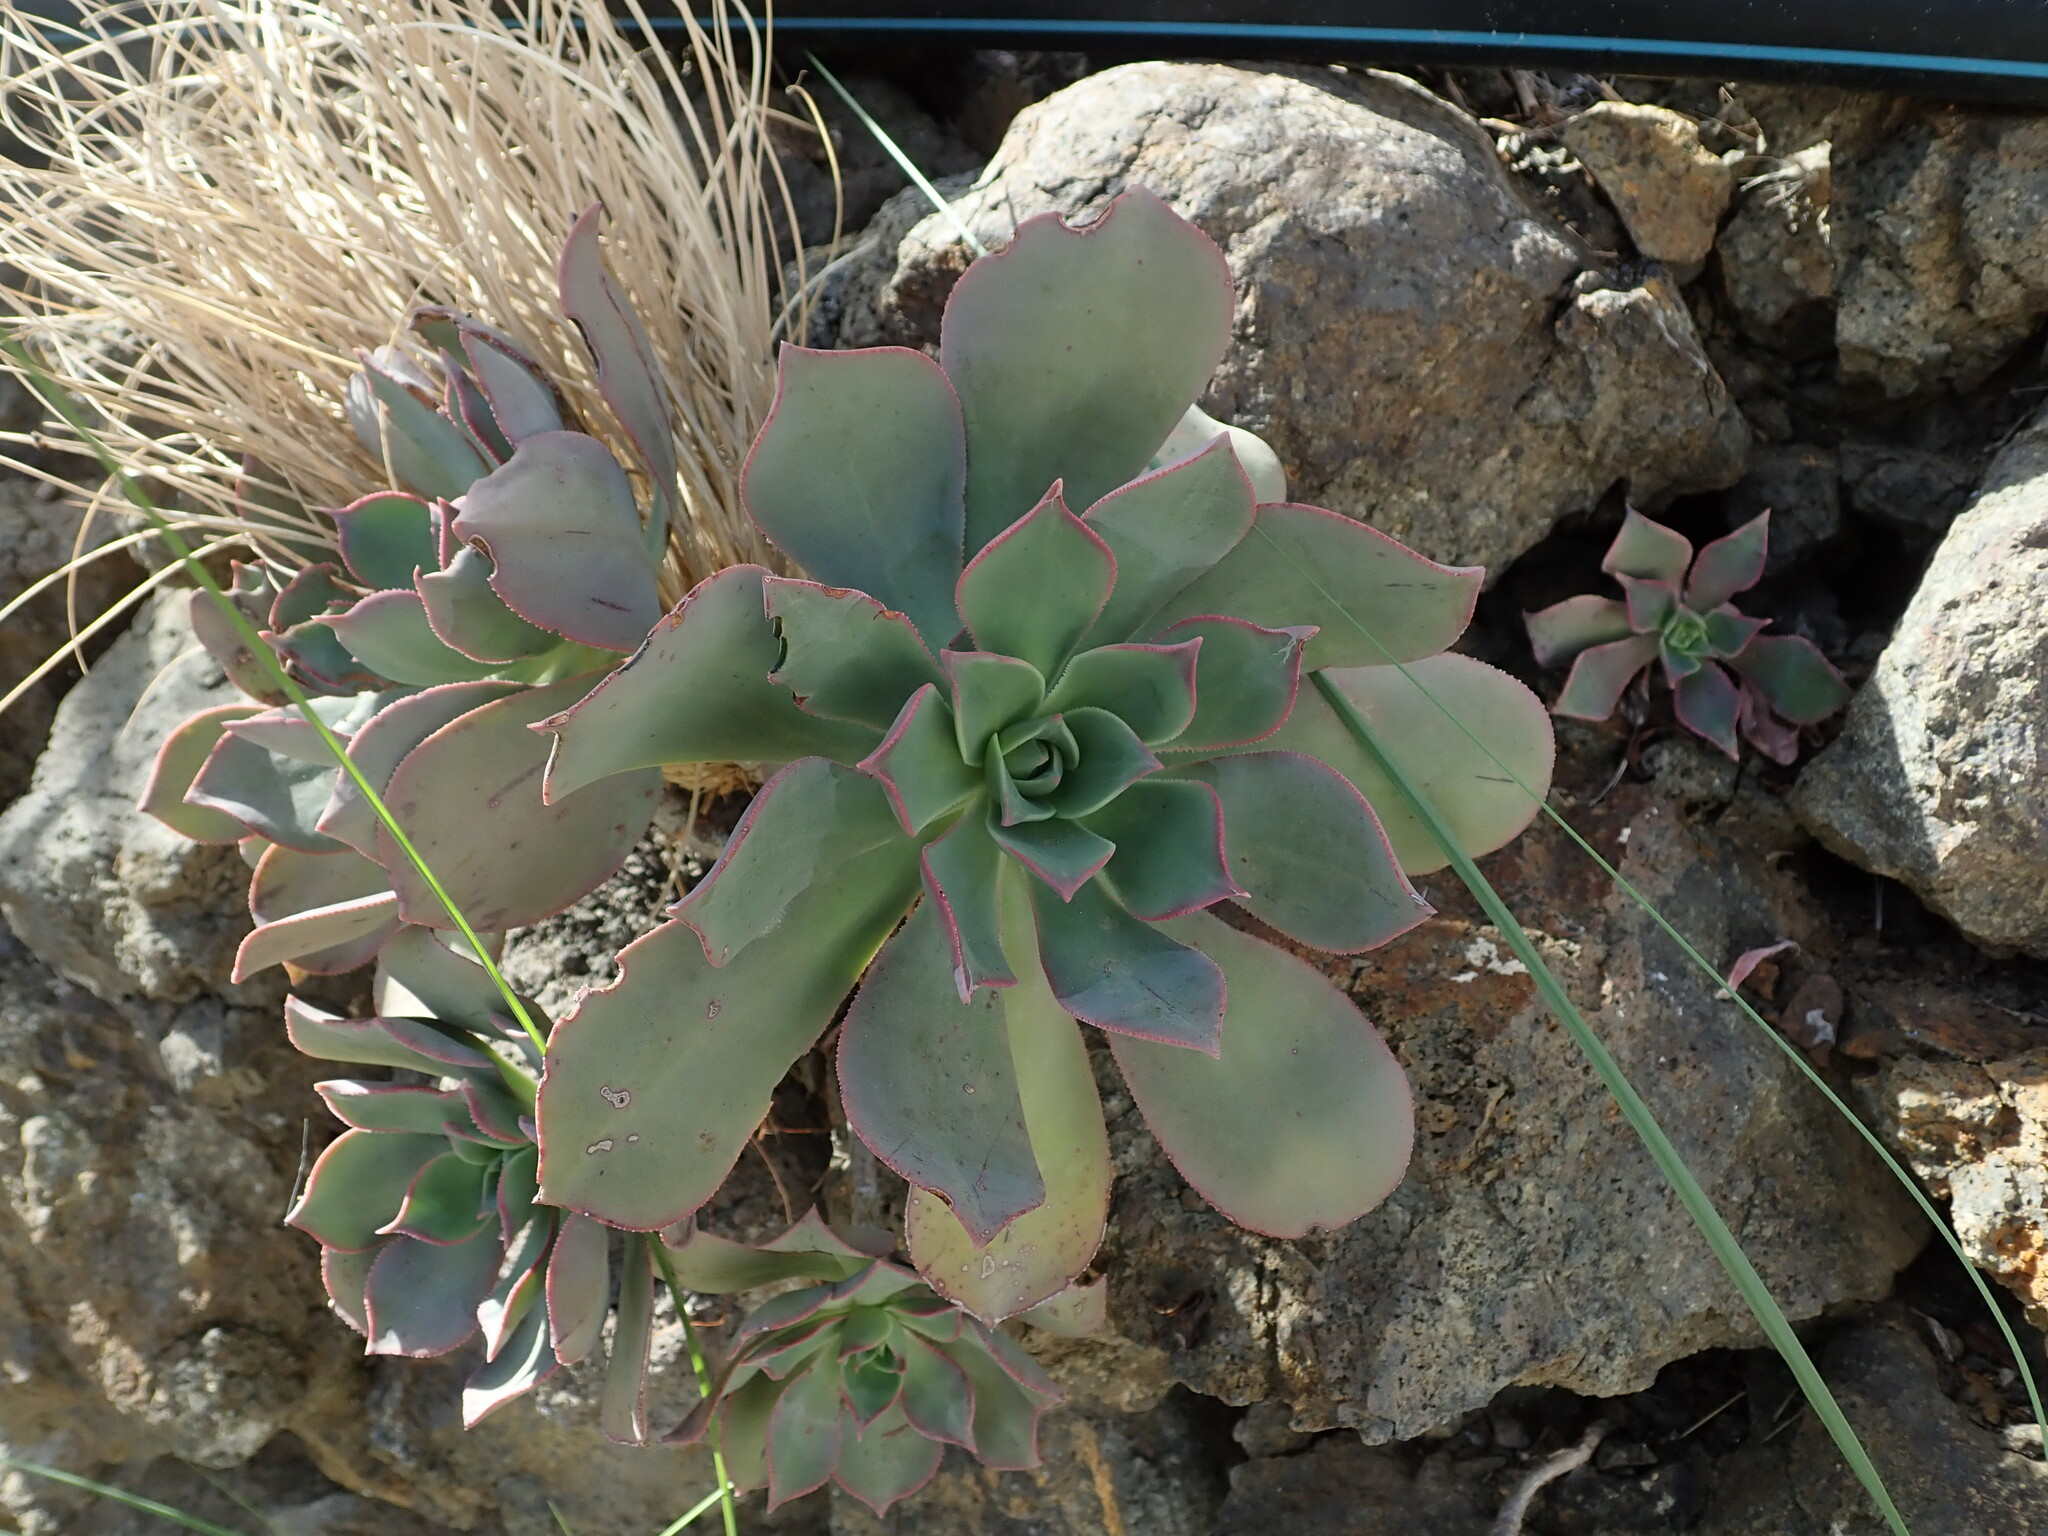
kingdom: Plantae
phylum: Tracheophyta
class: Magnoliopsida
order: Saxifragales
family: Crassulaceae
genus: Aeonium
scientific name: Aeonium percarneum
